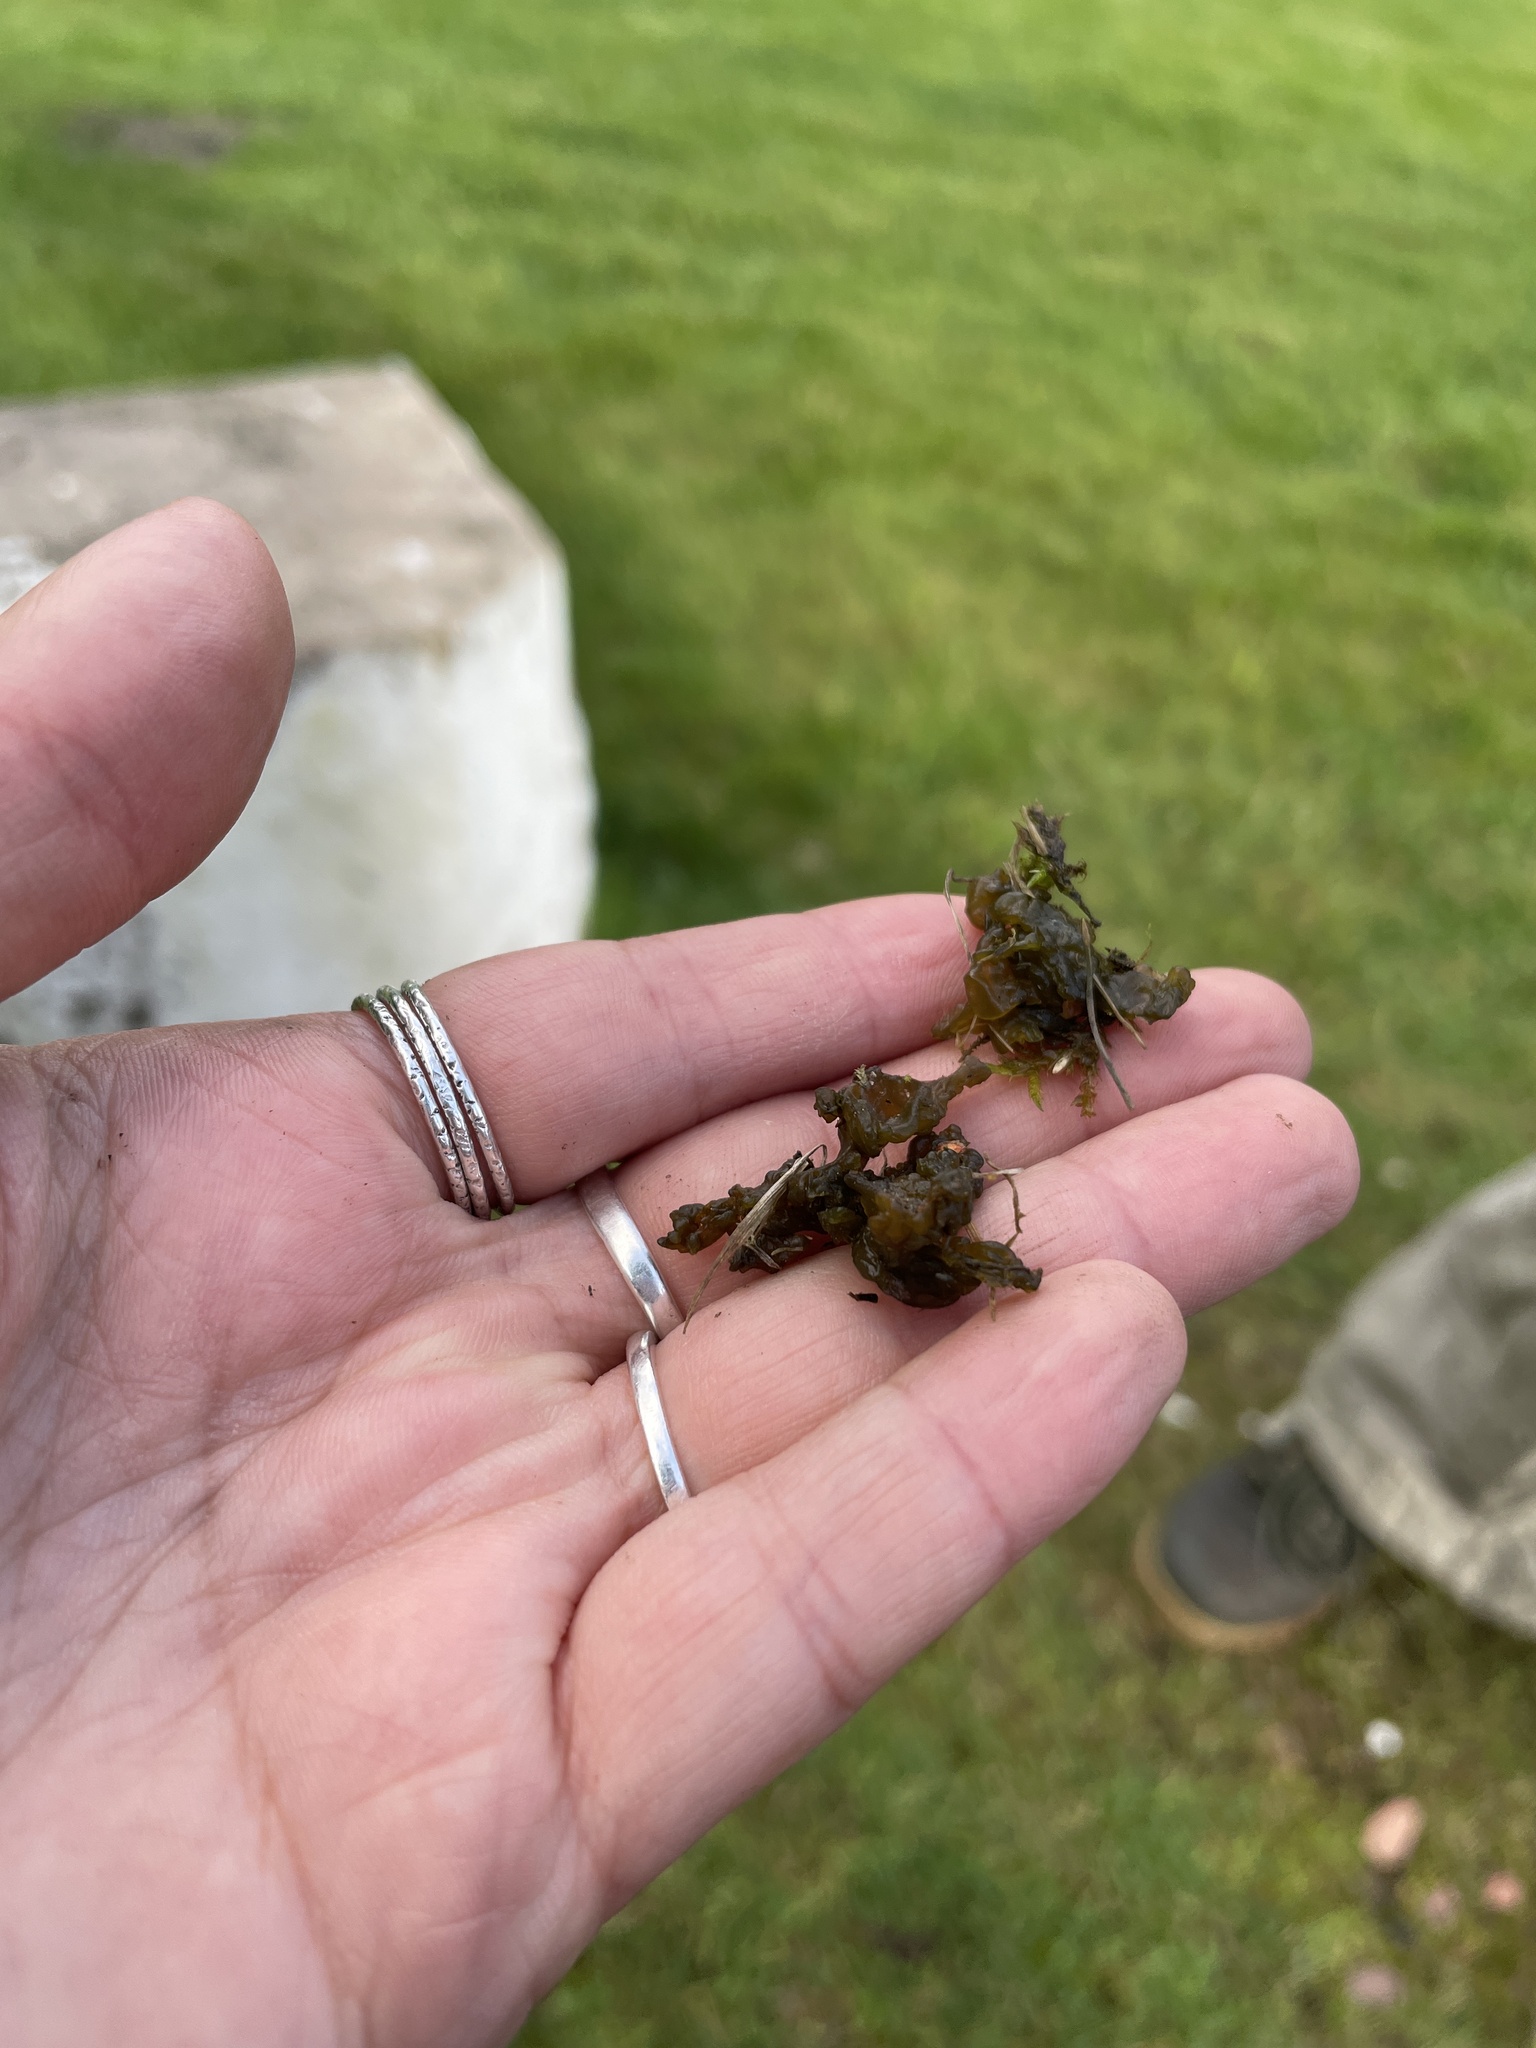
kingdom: Bacteria
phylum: Cyanobacteria
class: Cyanobacteriia
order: Cyanobacteriales
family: Nostocaceae
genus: Nostoc
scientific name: Nostoc commune
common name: Star jelly
